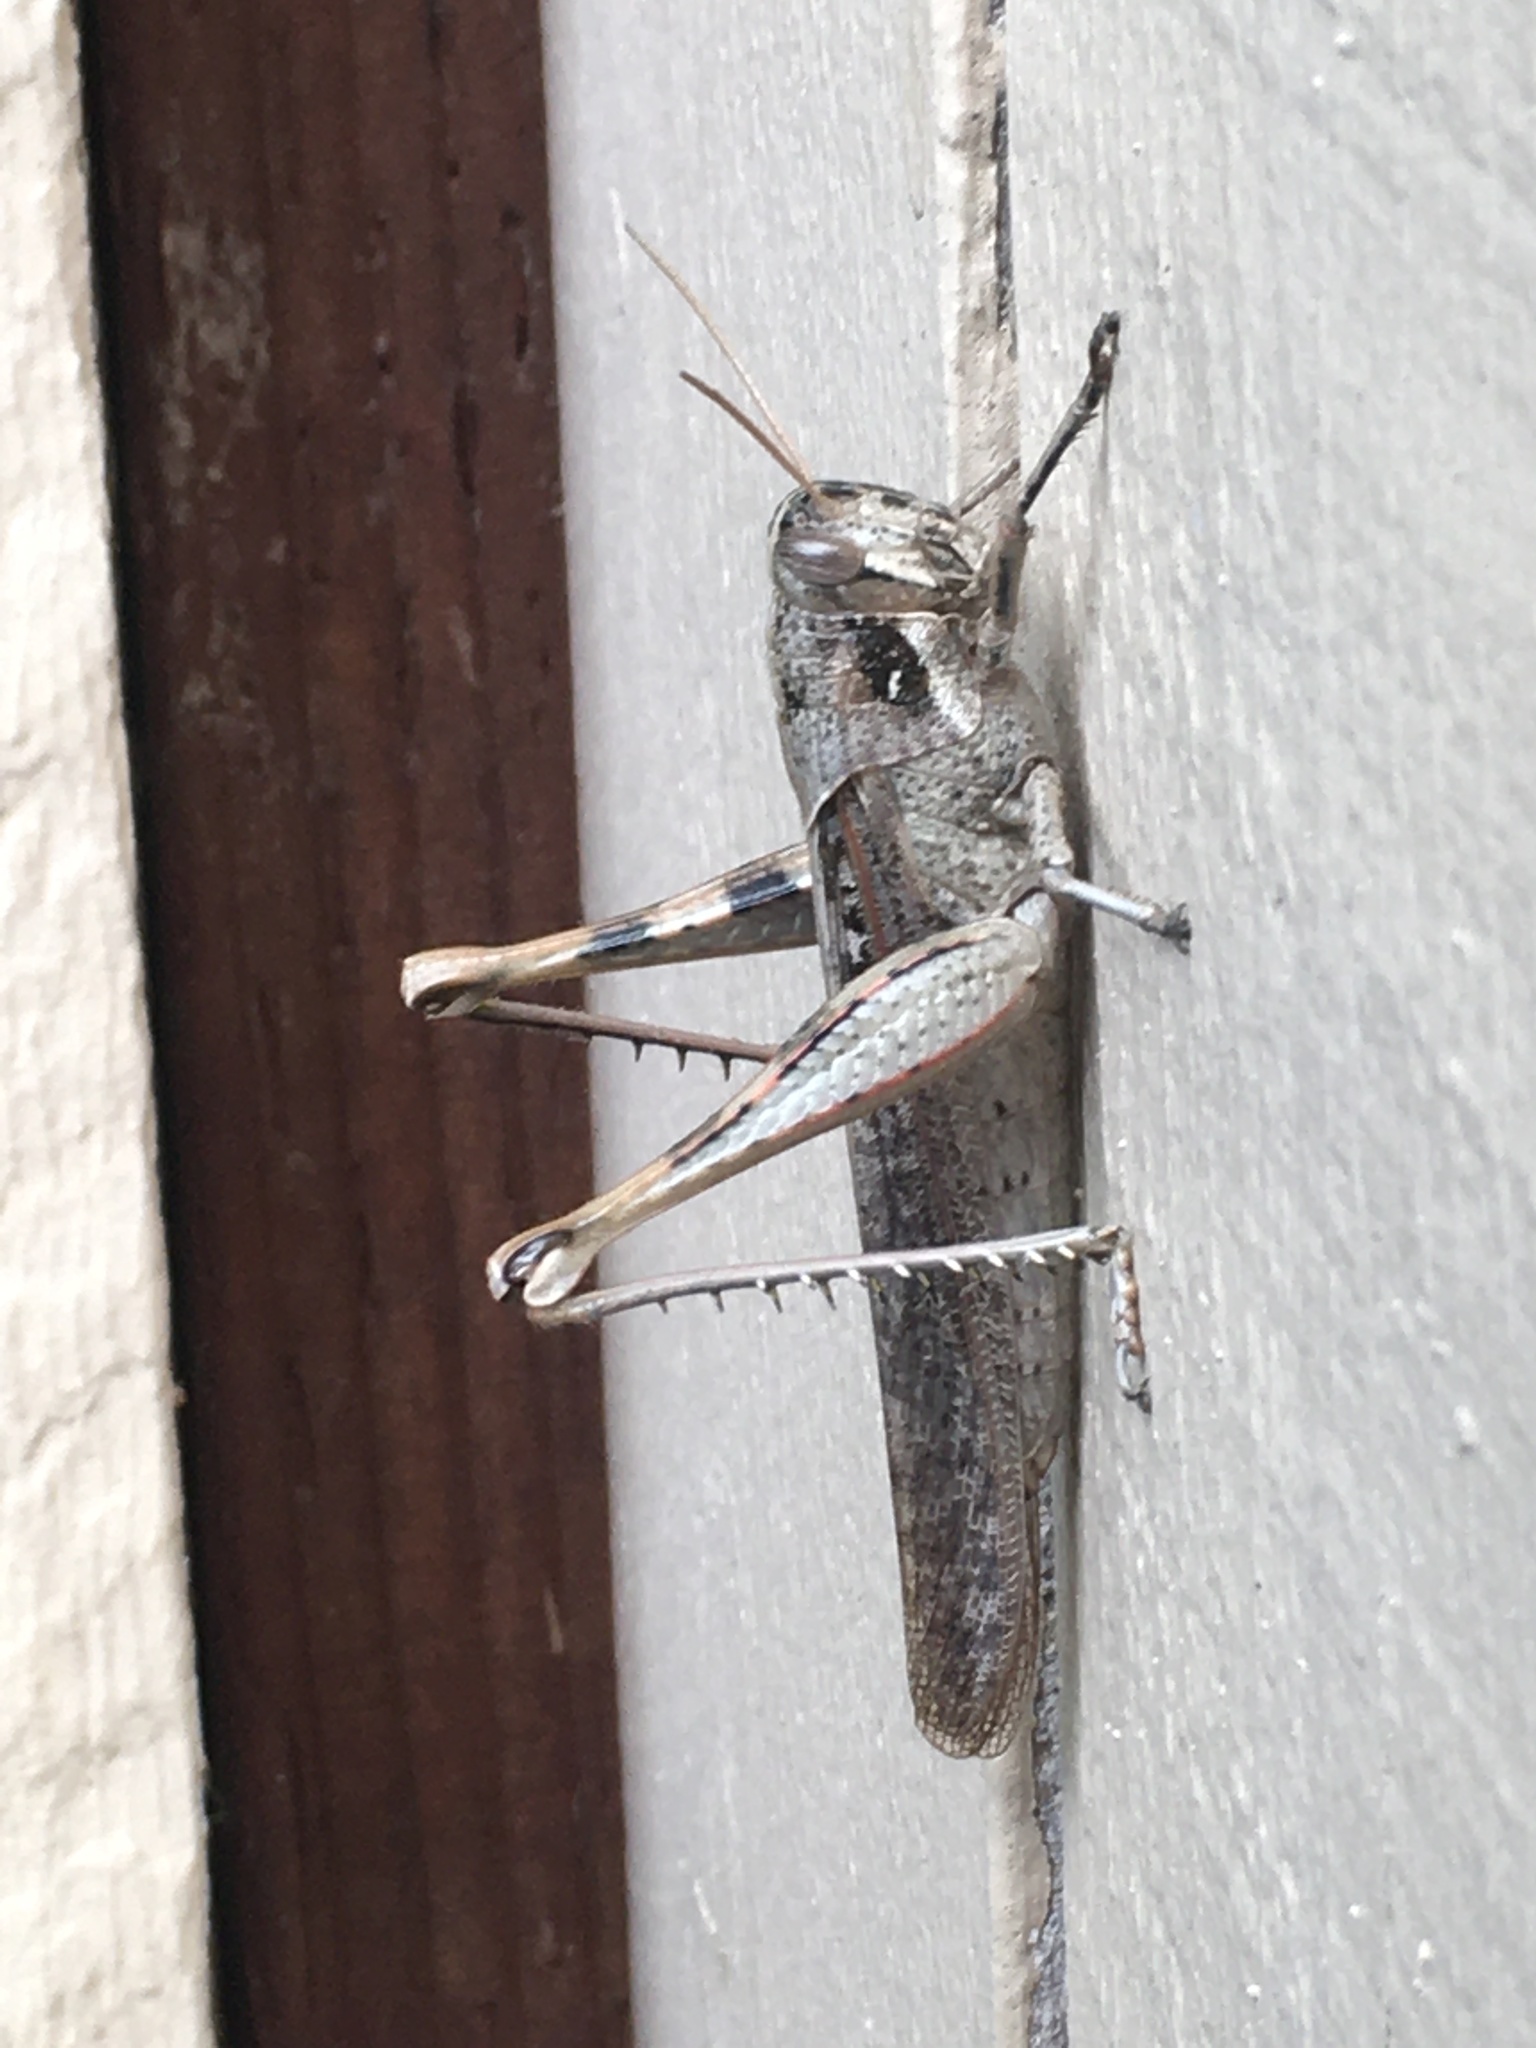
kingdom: Animalia
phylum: Arthropoda
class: Insecta
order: Orthoptera
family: Acrididae
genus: Schistocerca
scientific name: Schistocerca nitens
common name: Vagrant grasshopper
